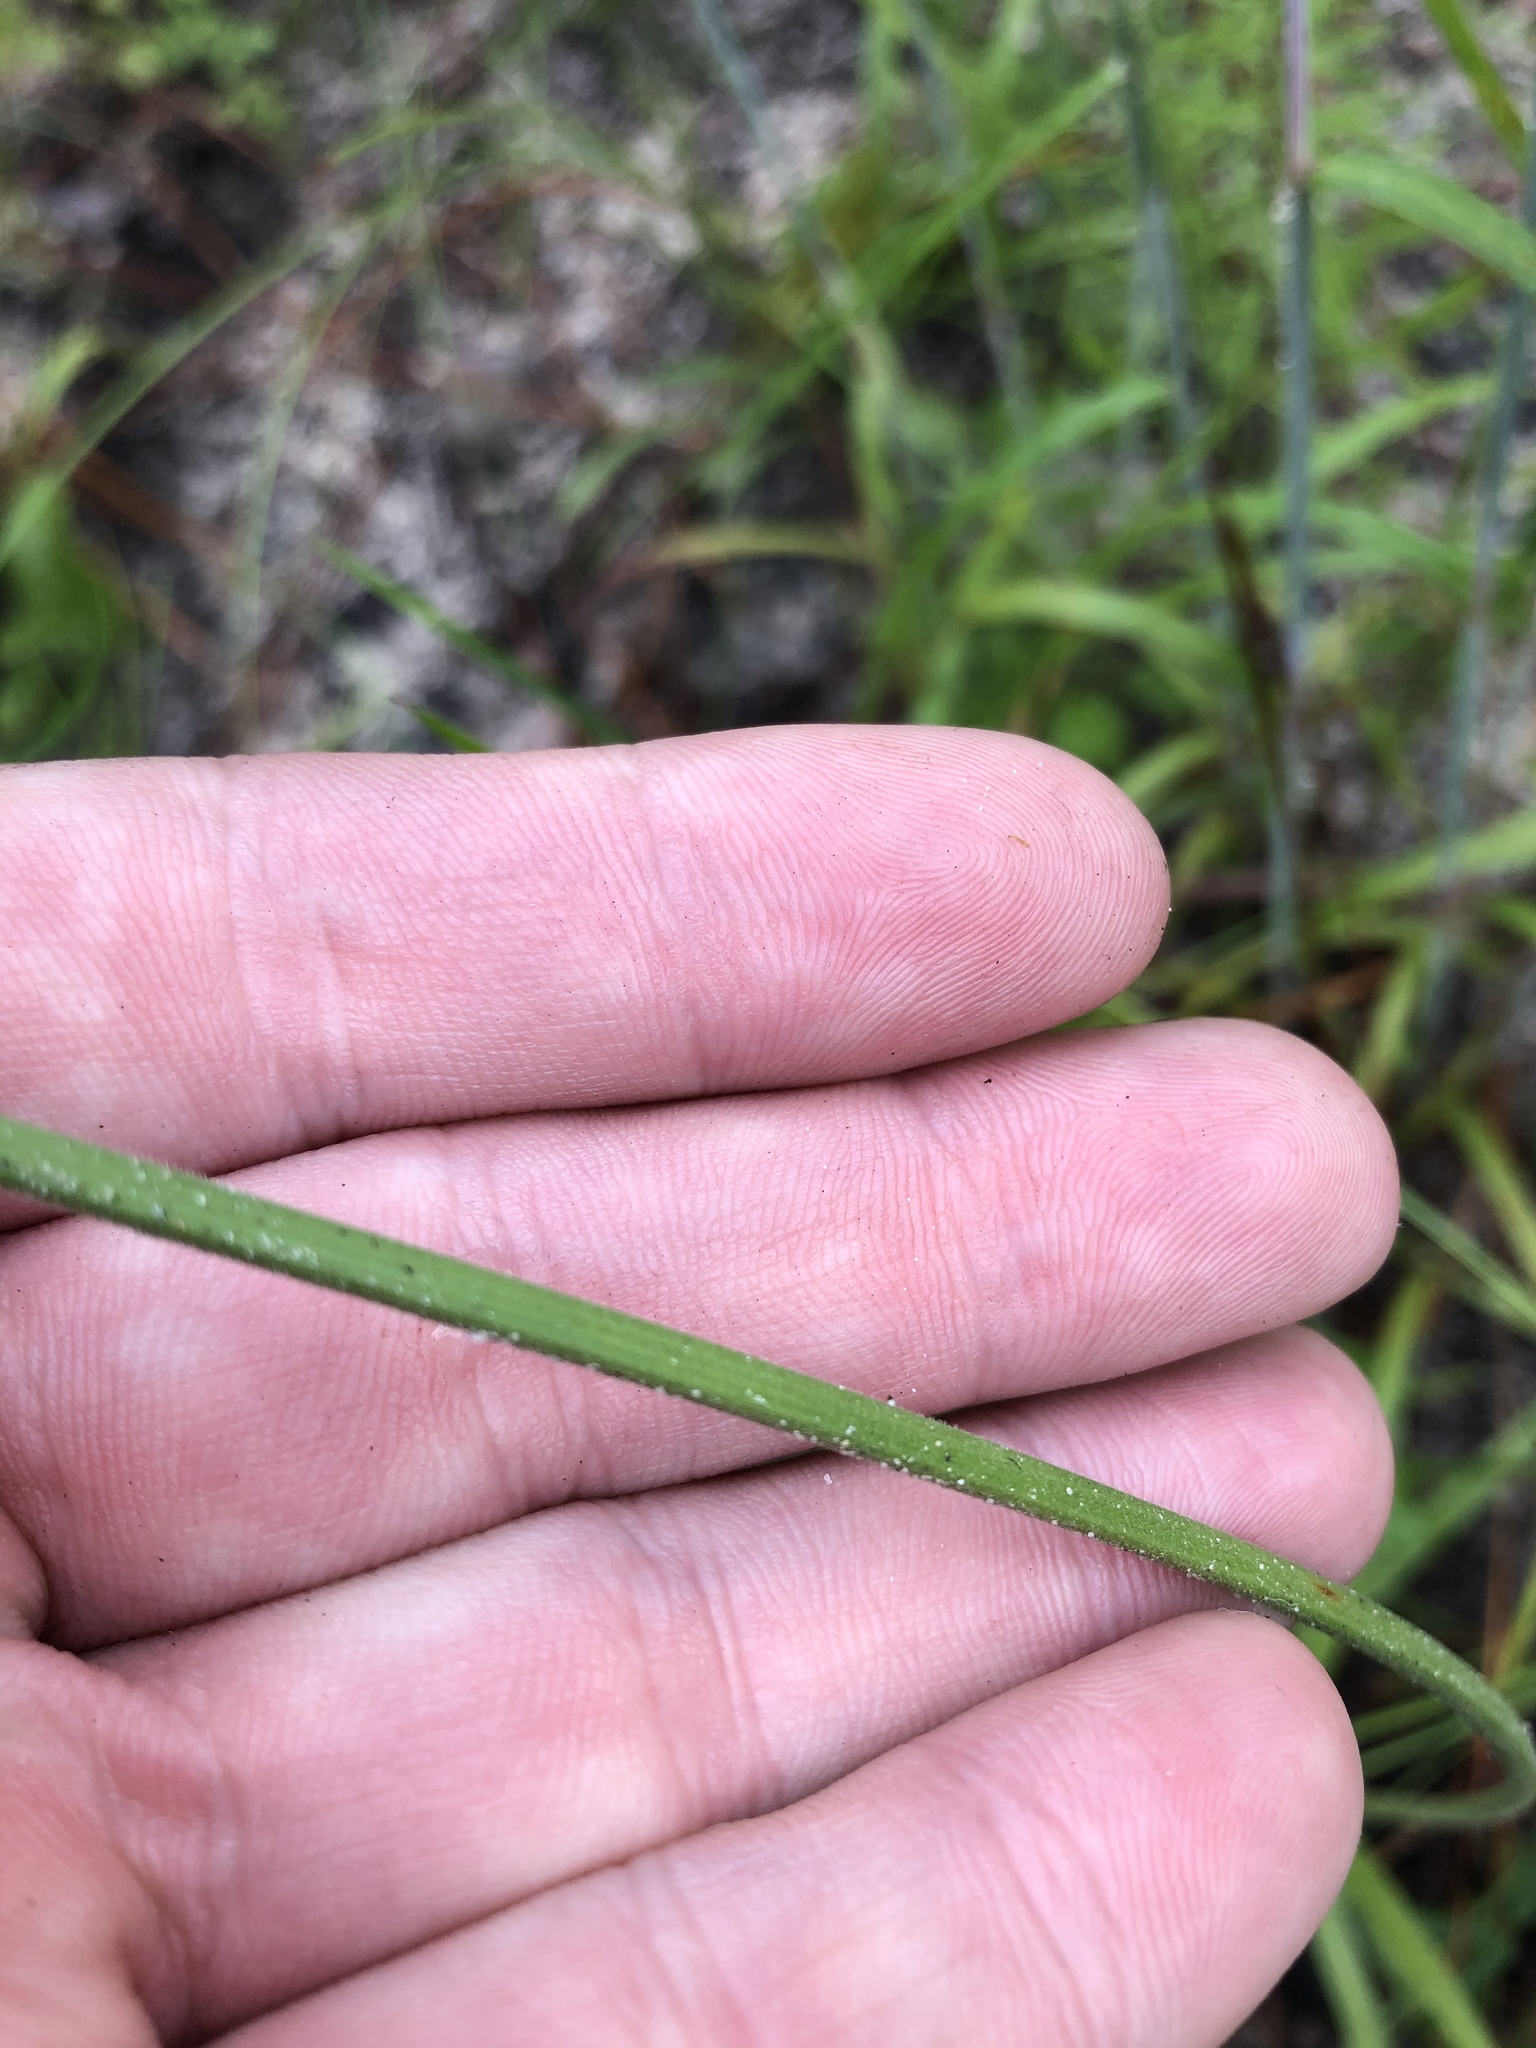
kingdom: Plantae
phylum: Tracheophyta
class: Liliopsida
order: Poales
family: Cyperaceae
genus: Cyperus
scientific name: Cyperus plukenetii
